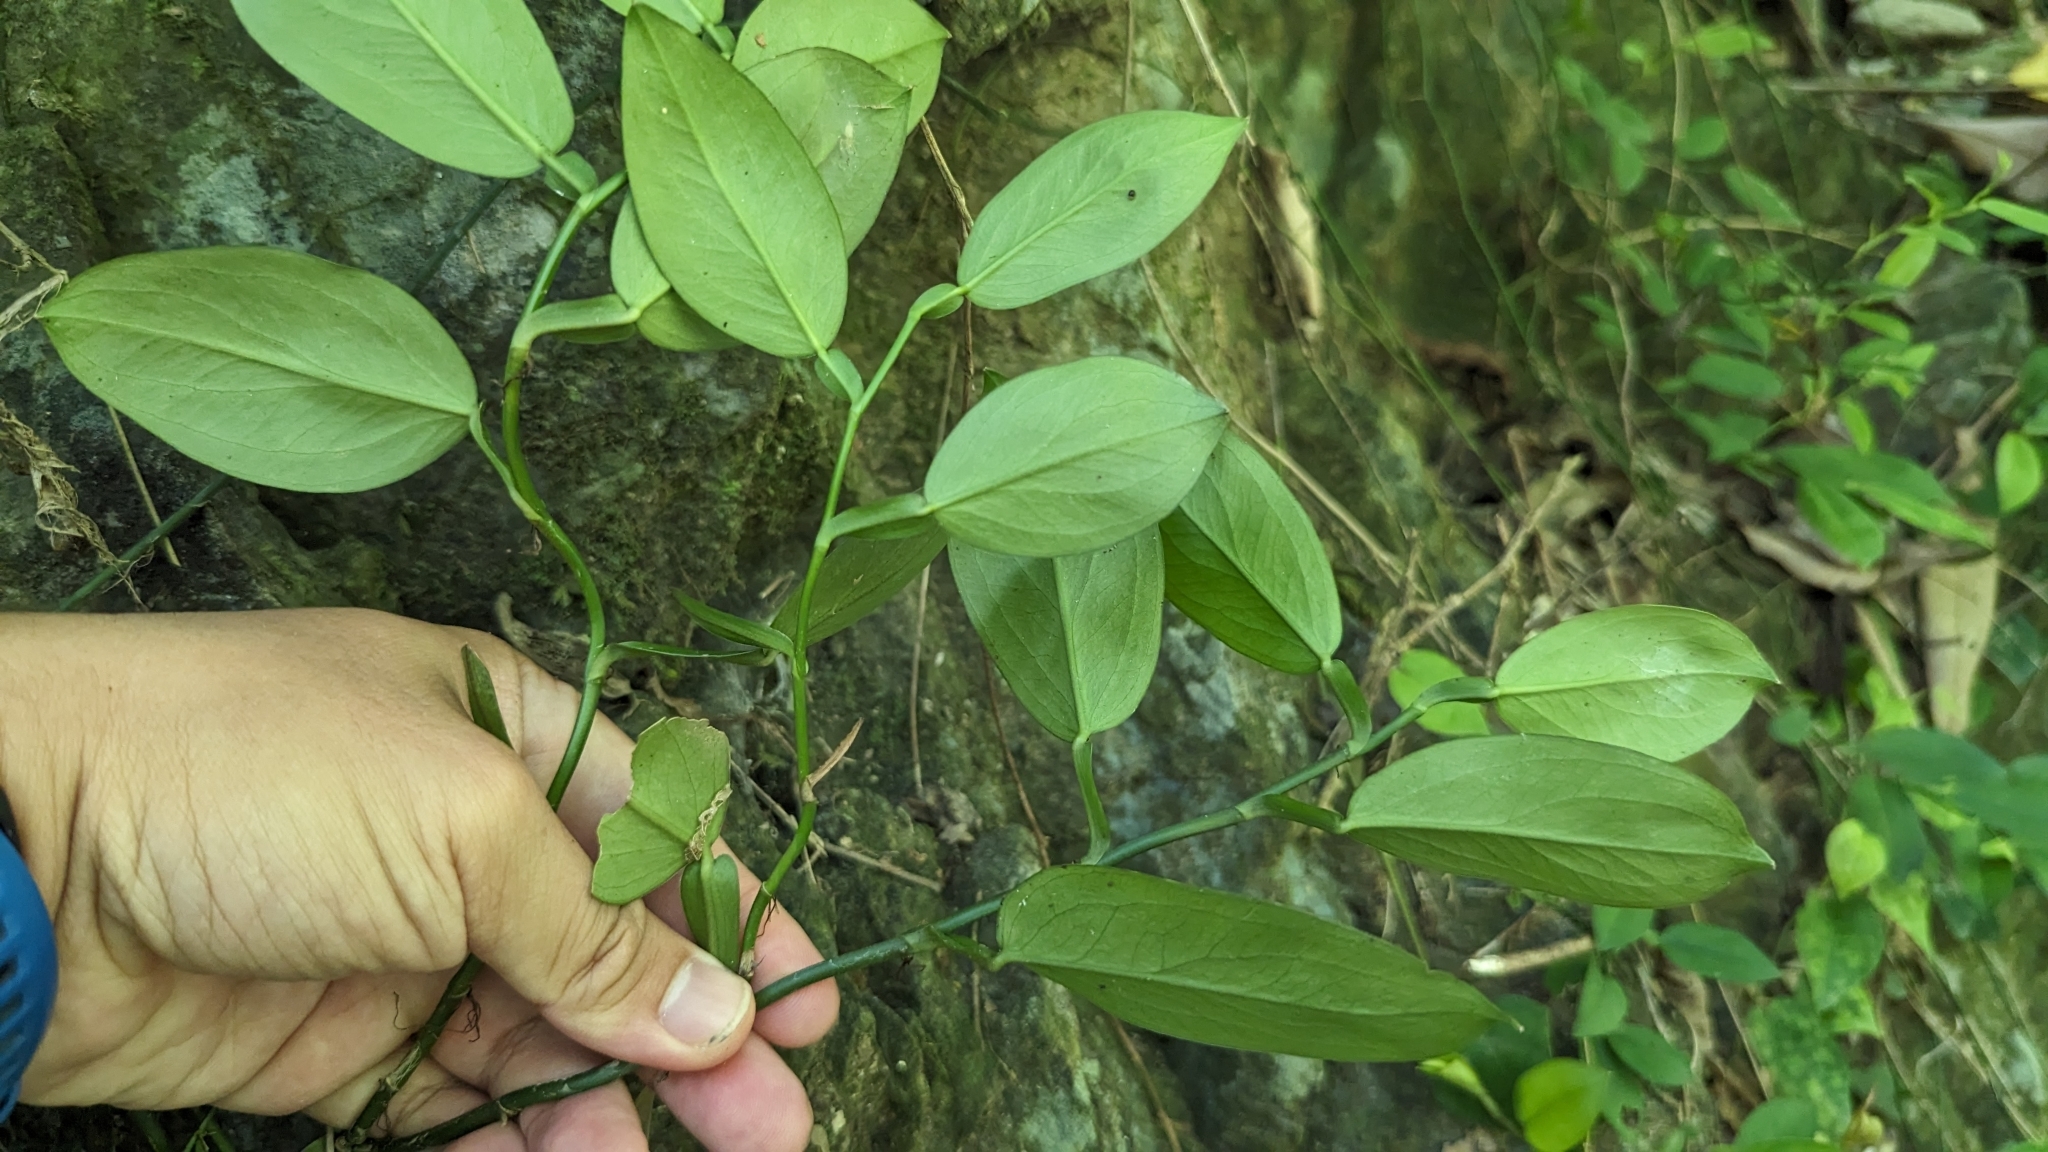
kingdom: Plantae
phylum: Tracheophyta
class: Liliopsida
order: Alismatales
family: Araceae
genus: Pothos
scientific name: Pothos chinensis
